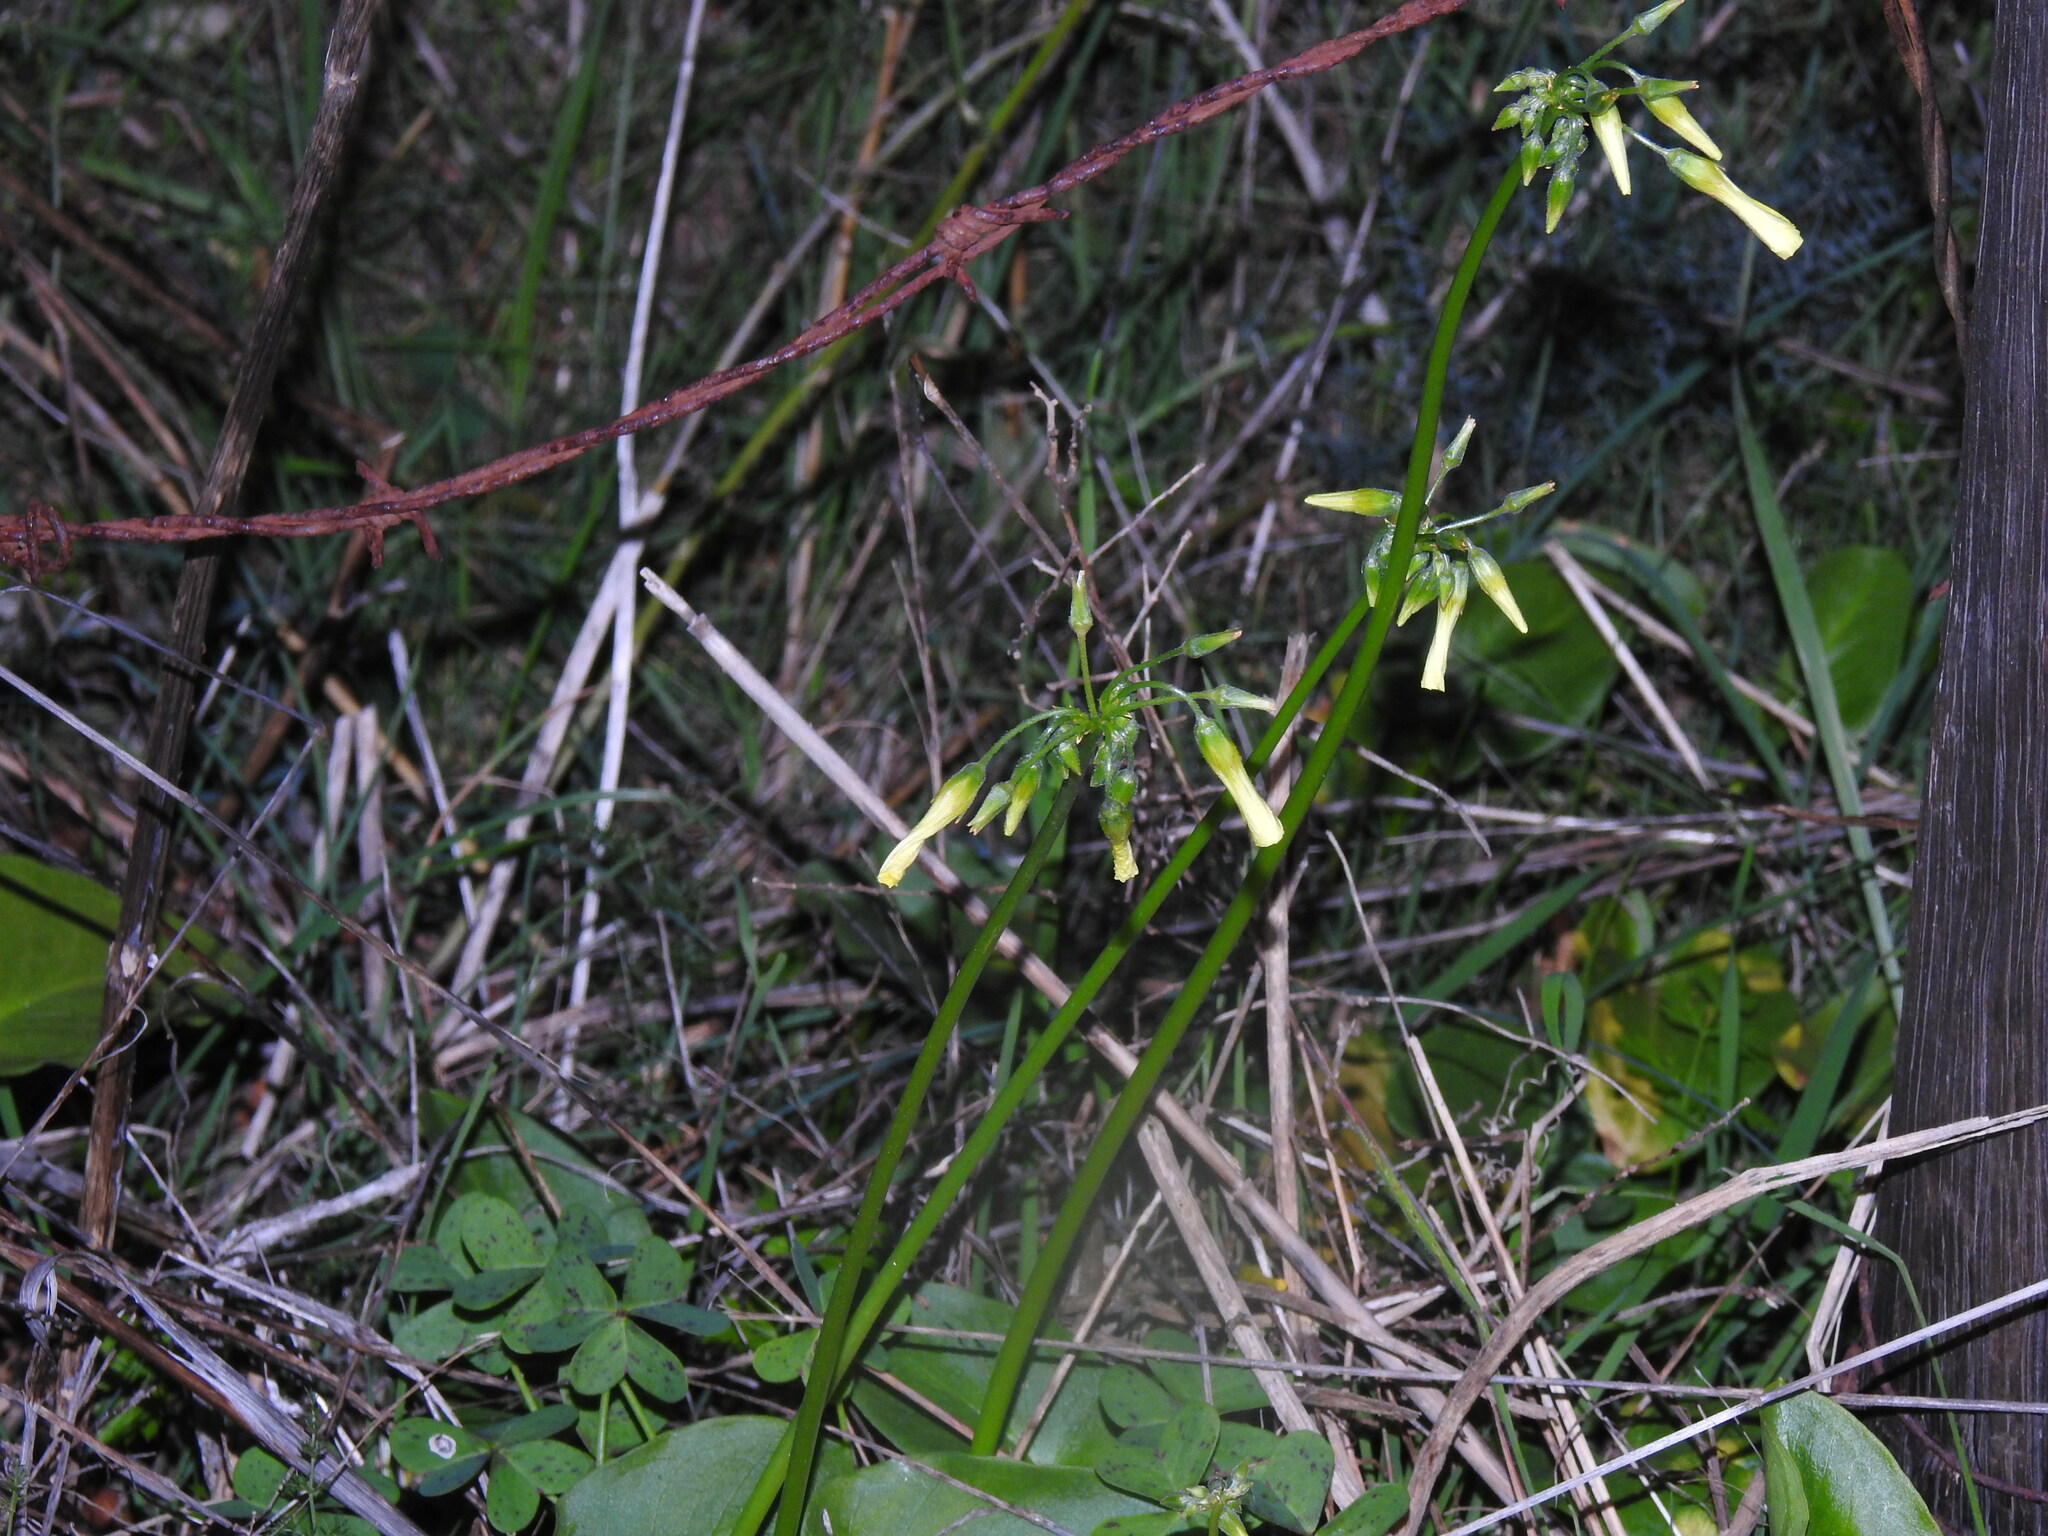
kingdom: Plantae
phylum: Tracheophyta
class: Magnoliopsida
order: Oxalidales
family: Oxalidaceae
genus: Oxalis
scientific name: Oxalis pes-caprae
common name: Bermuda-buttercup
